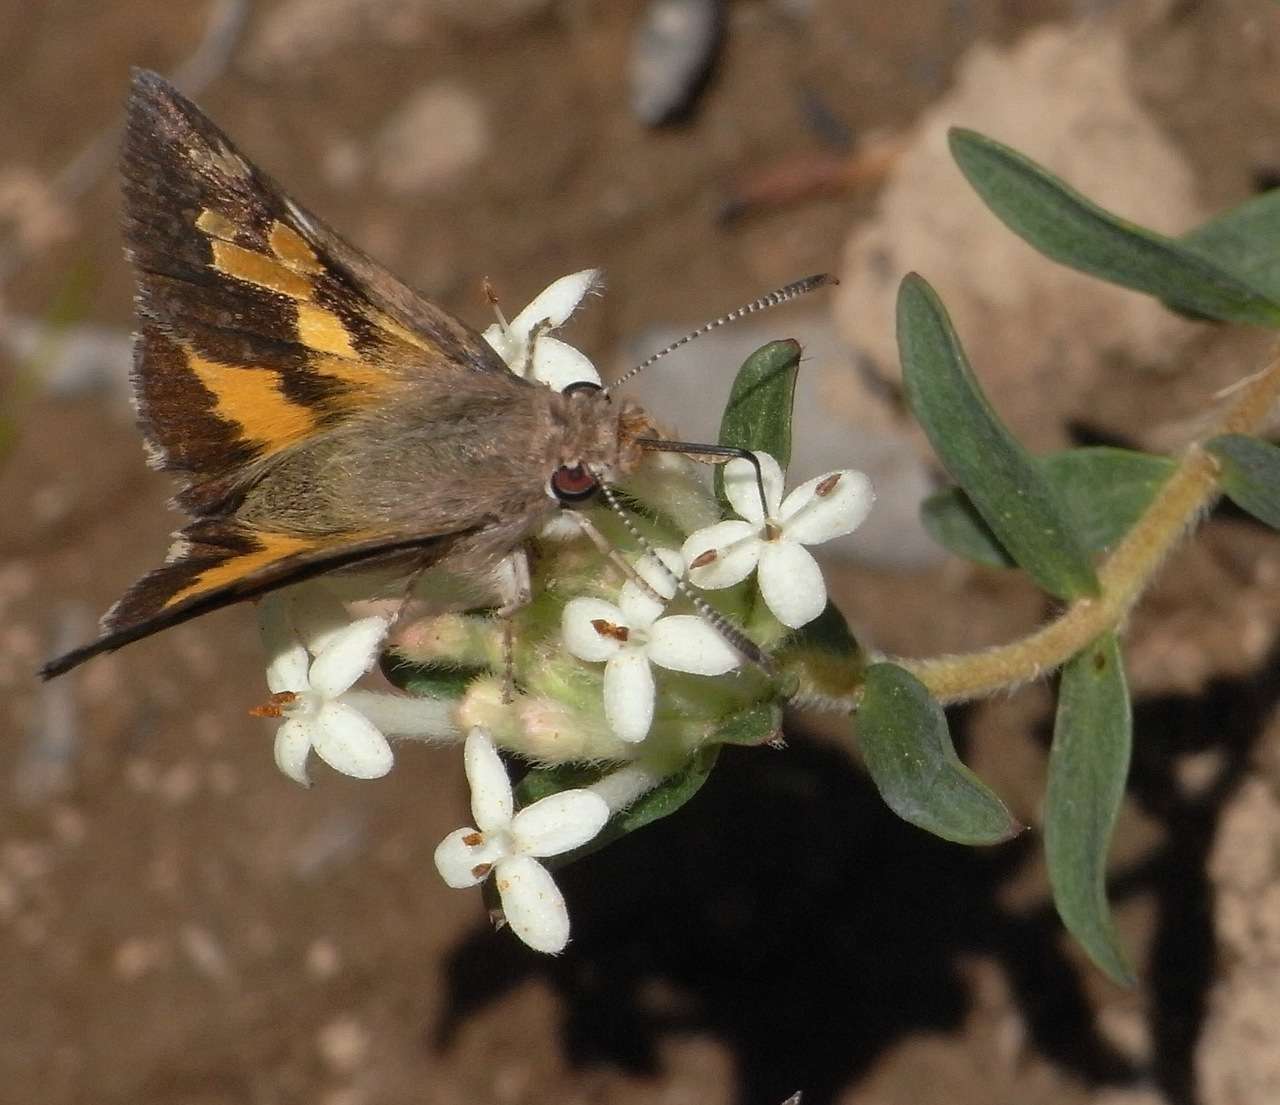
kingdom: Animalia
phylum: Arthropoda
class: Insecta
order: Lepidoptera
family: Hesperiidae
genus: Trapezites
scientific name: Trapezites phigalioides
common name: Montane ochre
